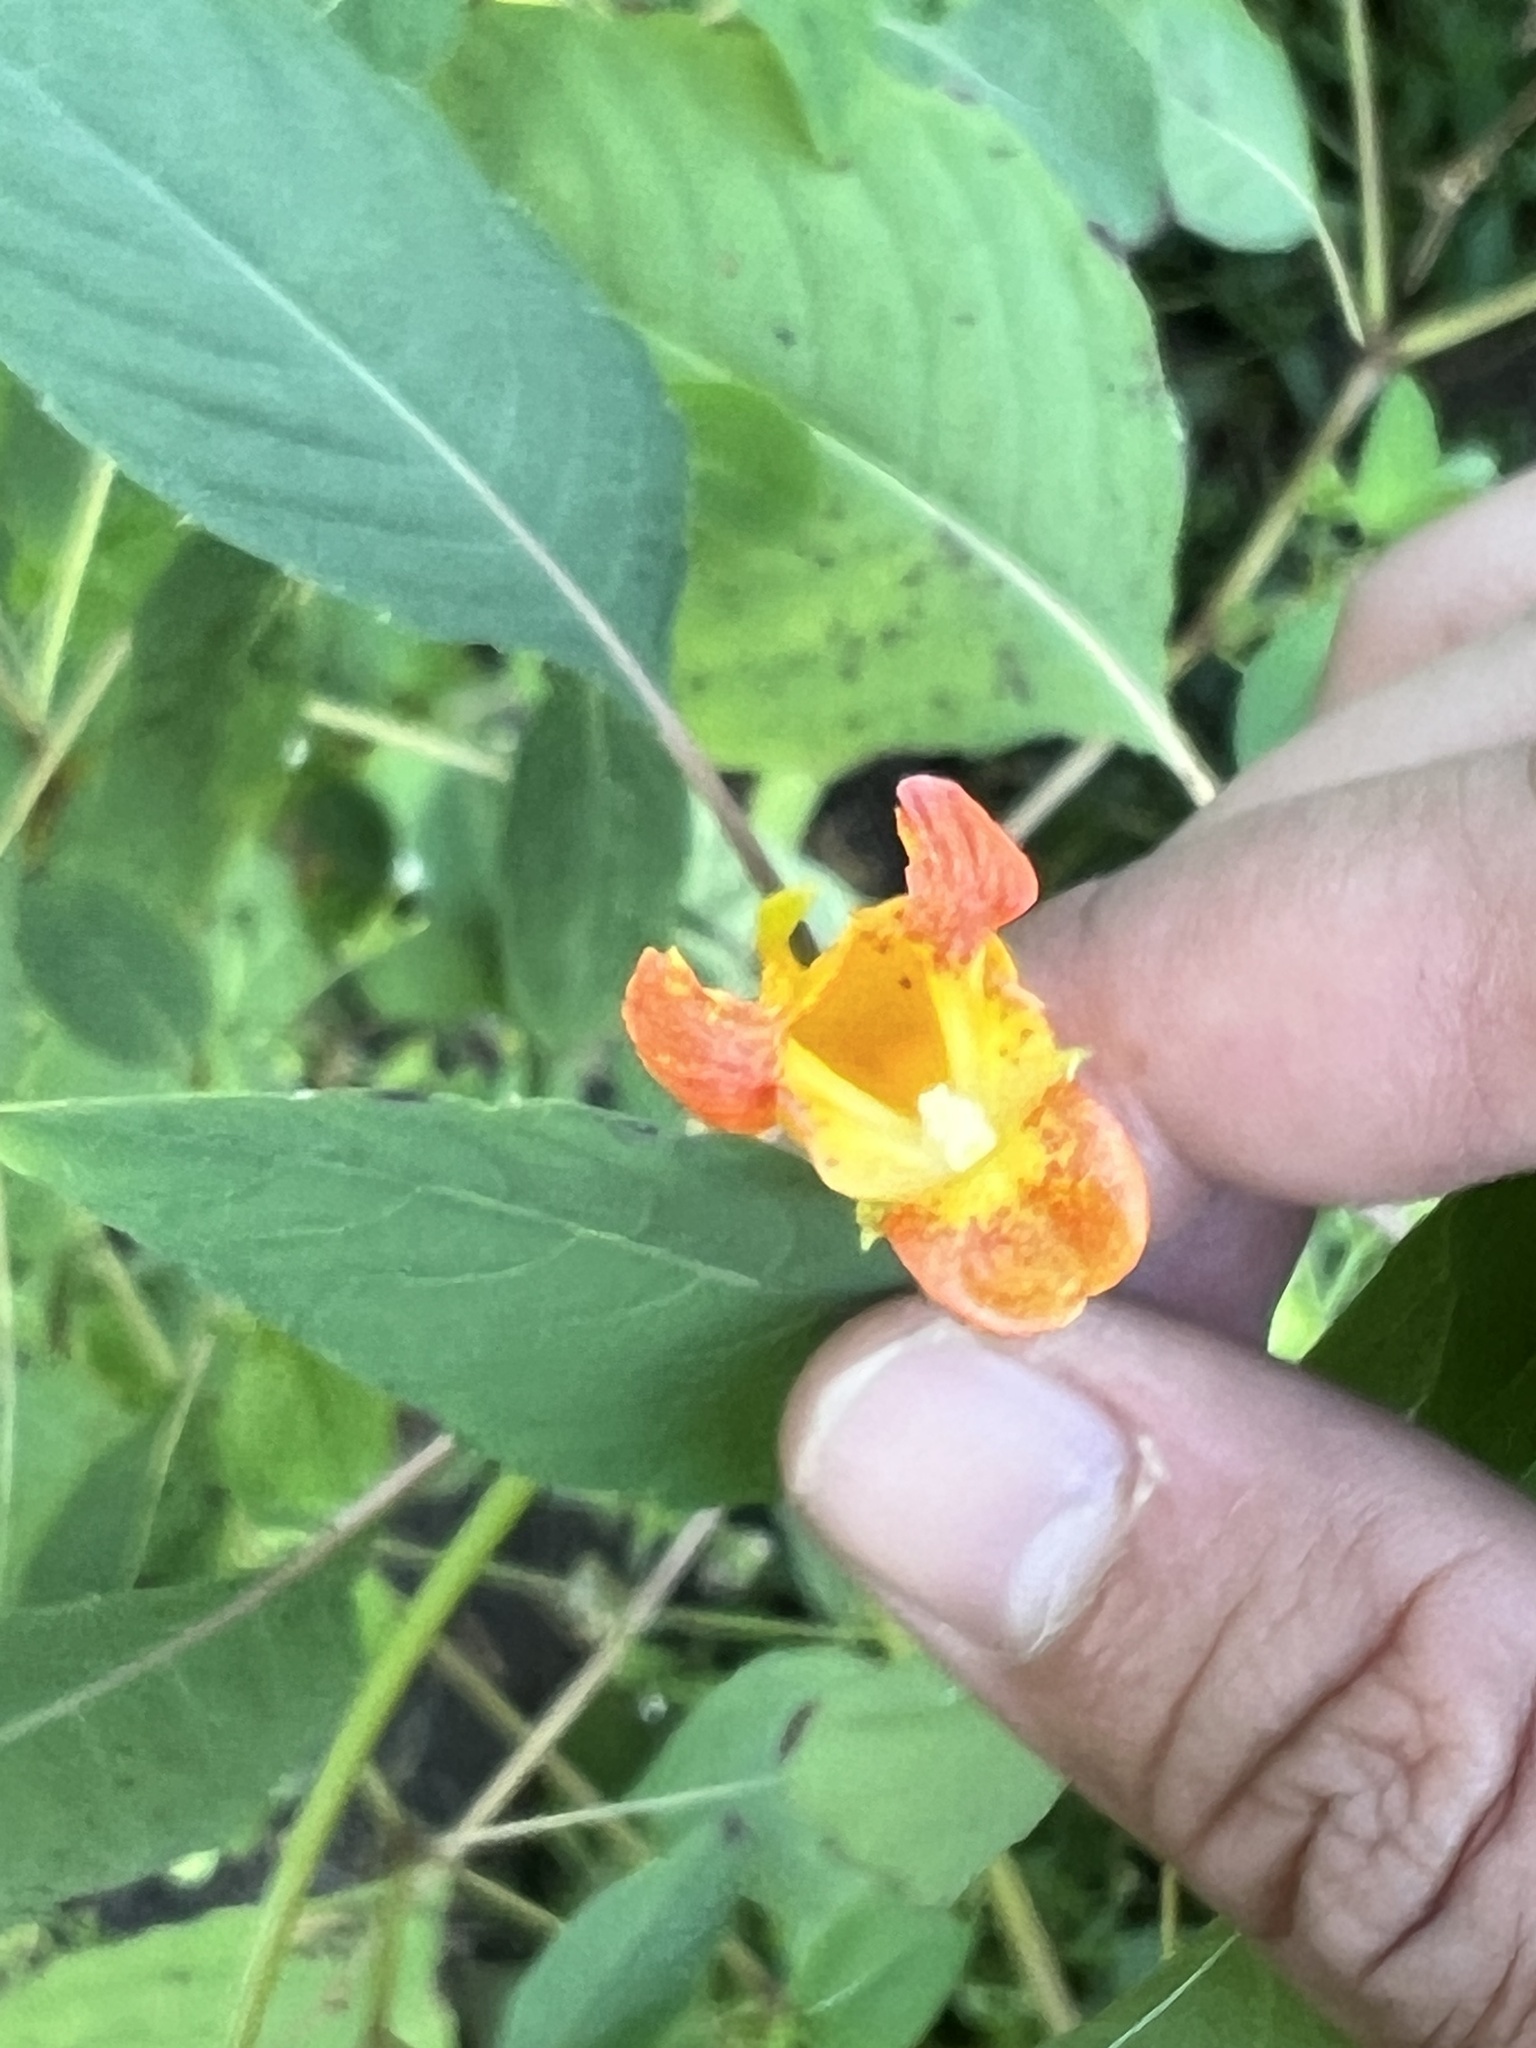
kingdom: Plantae
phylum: Tracheophyta
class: Magnoliopsida
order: Ericales
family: Balsaminaceae
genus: Impatiens
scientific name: Impatiens capensis
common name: Orange balsam
